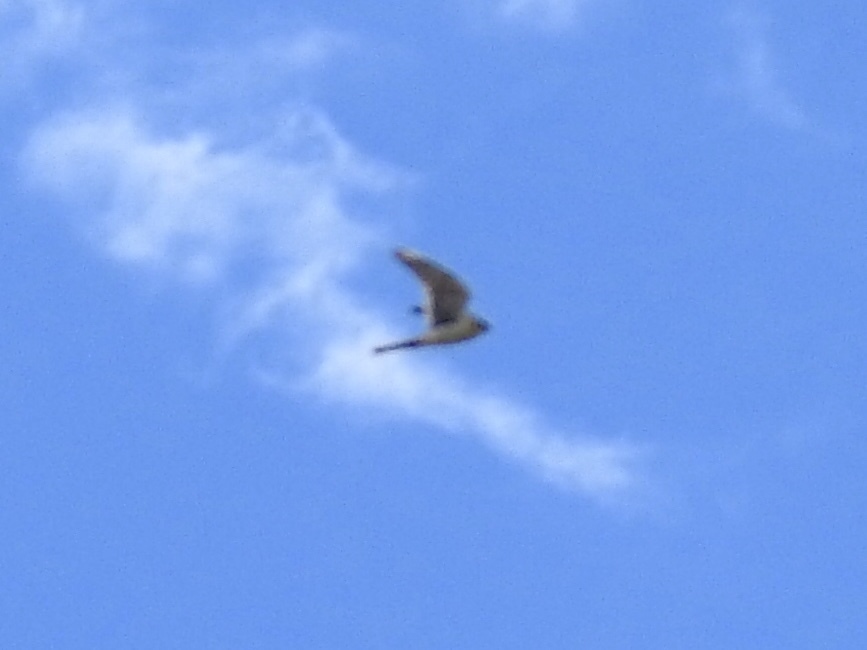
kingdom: Animalia
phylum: Chordata
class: Aves
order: Falconiformes
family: Falconidae
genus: Falco
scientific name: Falco sparverius
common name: American kestrel
